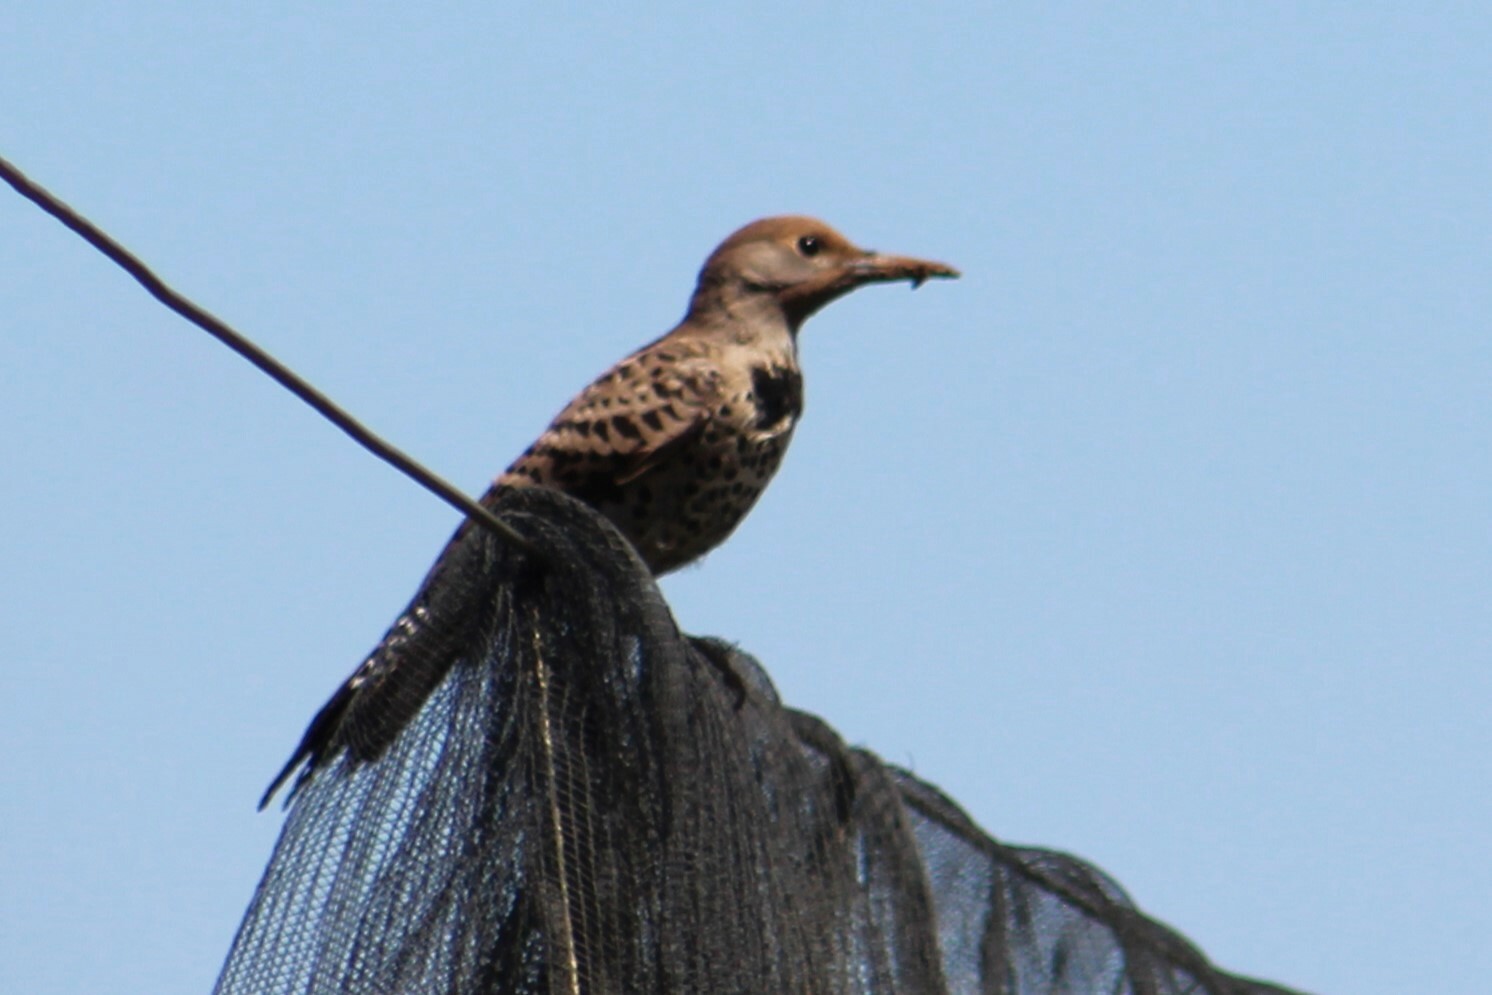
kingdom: Animalia
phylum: Chordata
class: Aves
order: Piciformes
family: Picidae
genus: Colaptes
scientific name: Colaptes auratus
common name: Northern flicker
